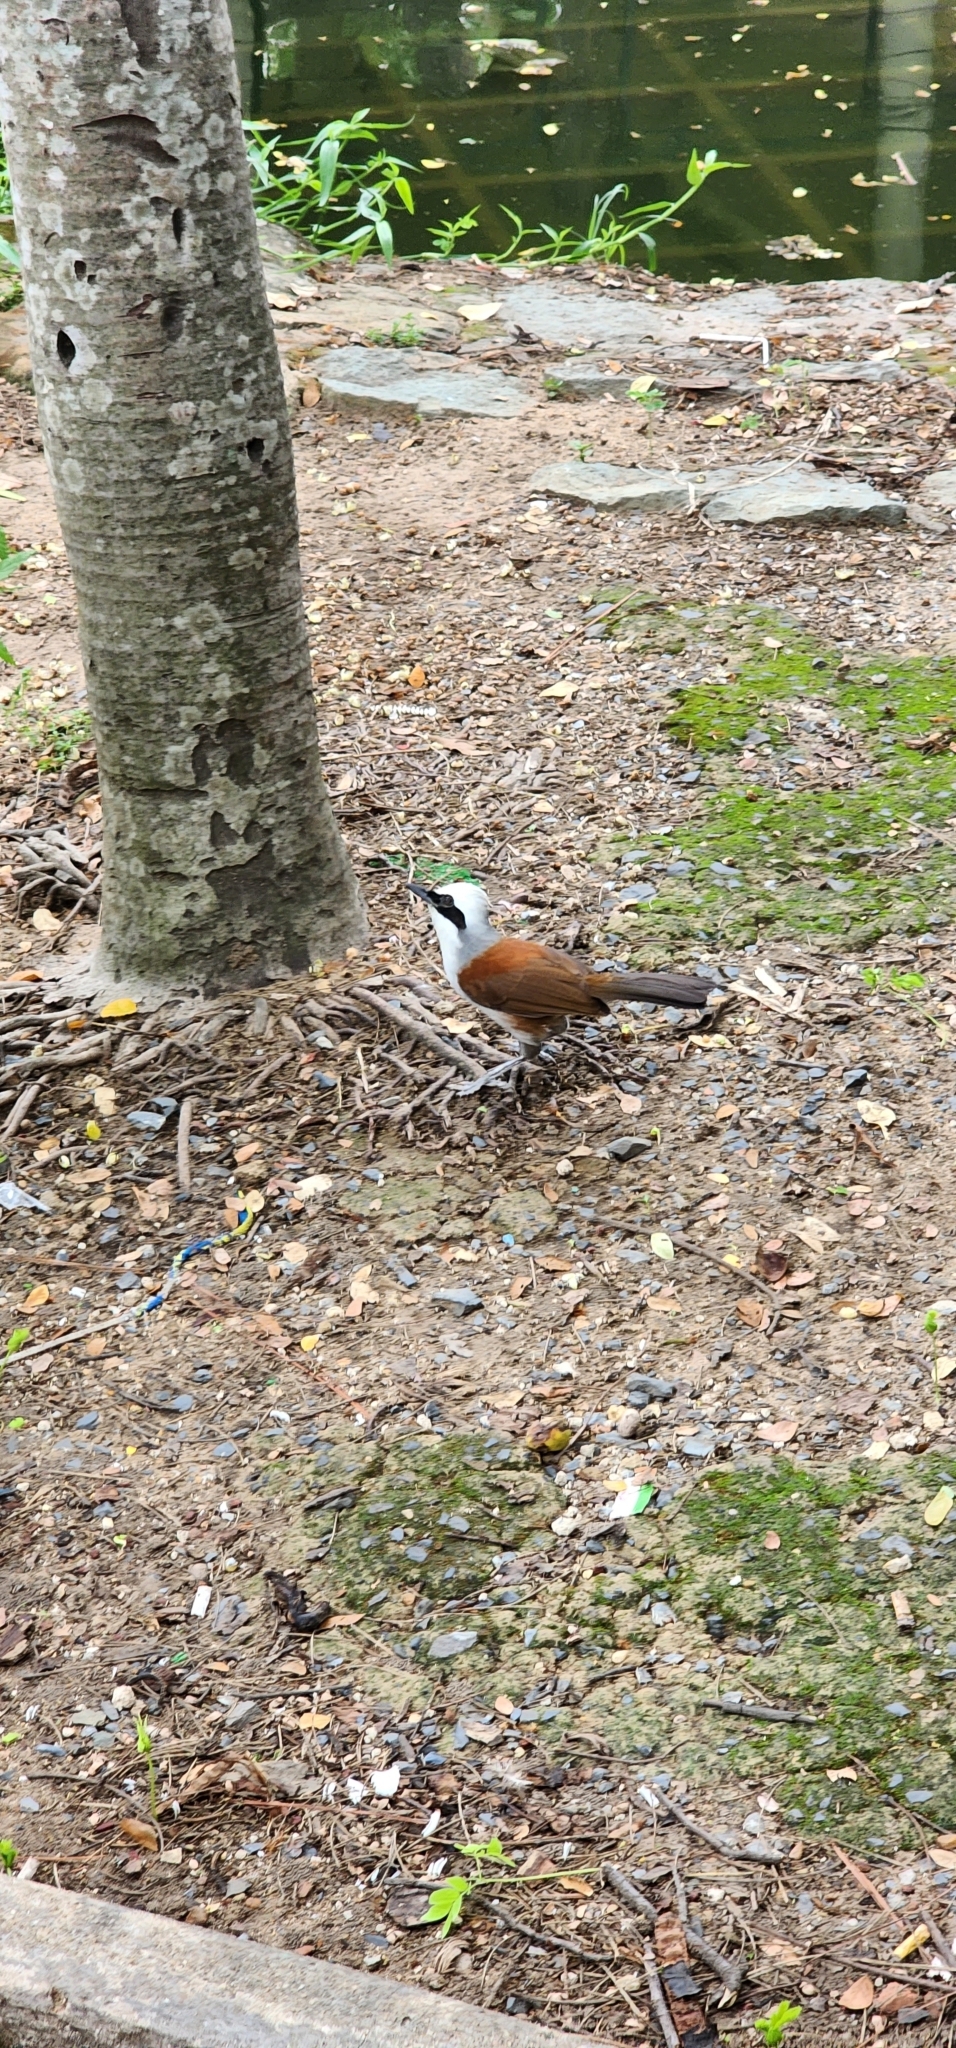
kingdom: Animalia
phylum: Chordata
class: Aves
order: Passeriformes
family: Leiothrichidae
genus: Garrulax
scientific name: Garrulax leucolophus
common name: White-crested laughingthrush
